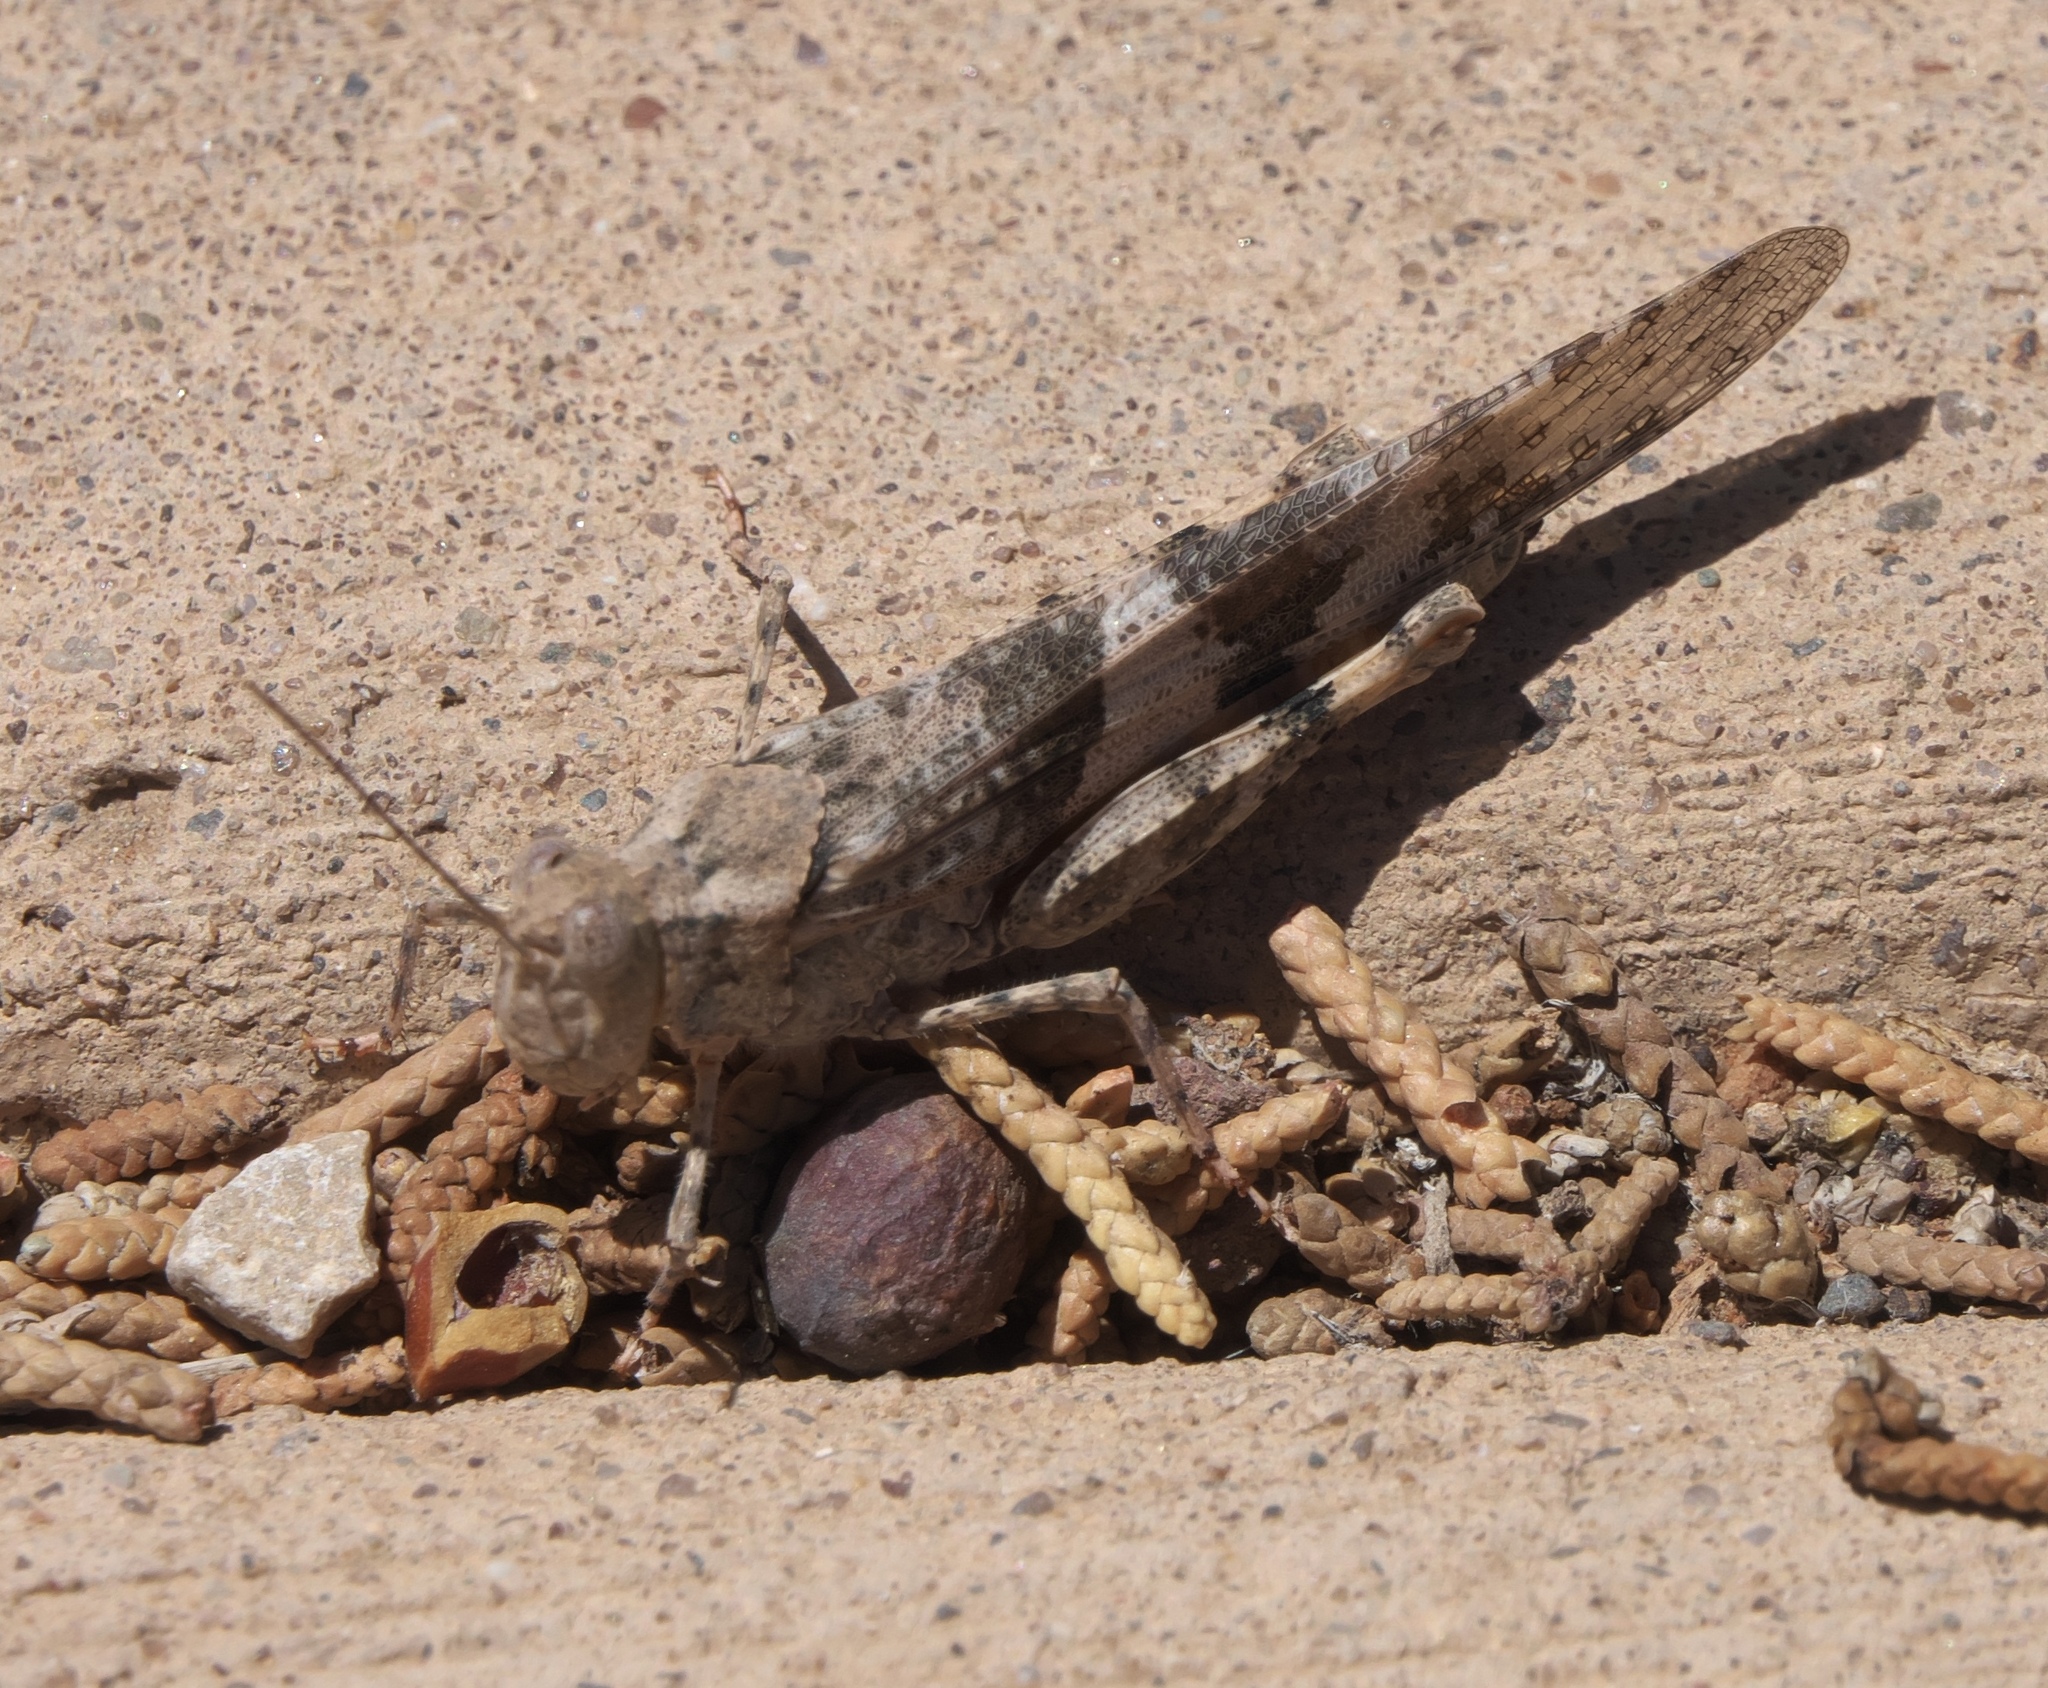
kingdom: Animalia
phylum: Arthropoda
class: Insecta
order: Orthoptera
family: Acrididae
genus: Trimerotropis
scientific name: Trimerotropis pallidipennis
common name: Pallid-winged grasshopper
